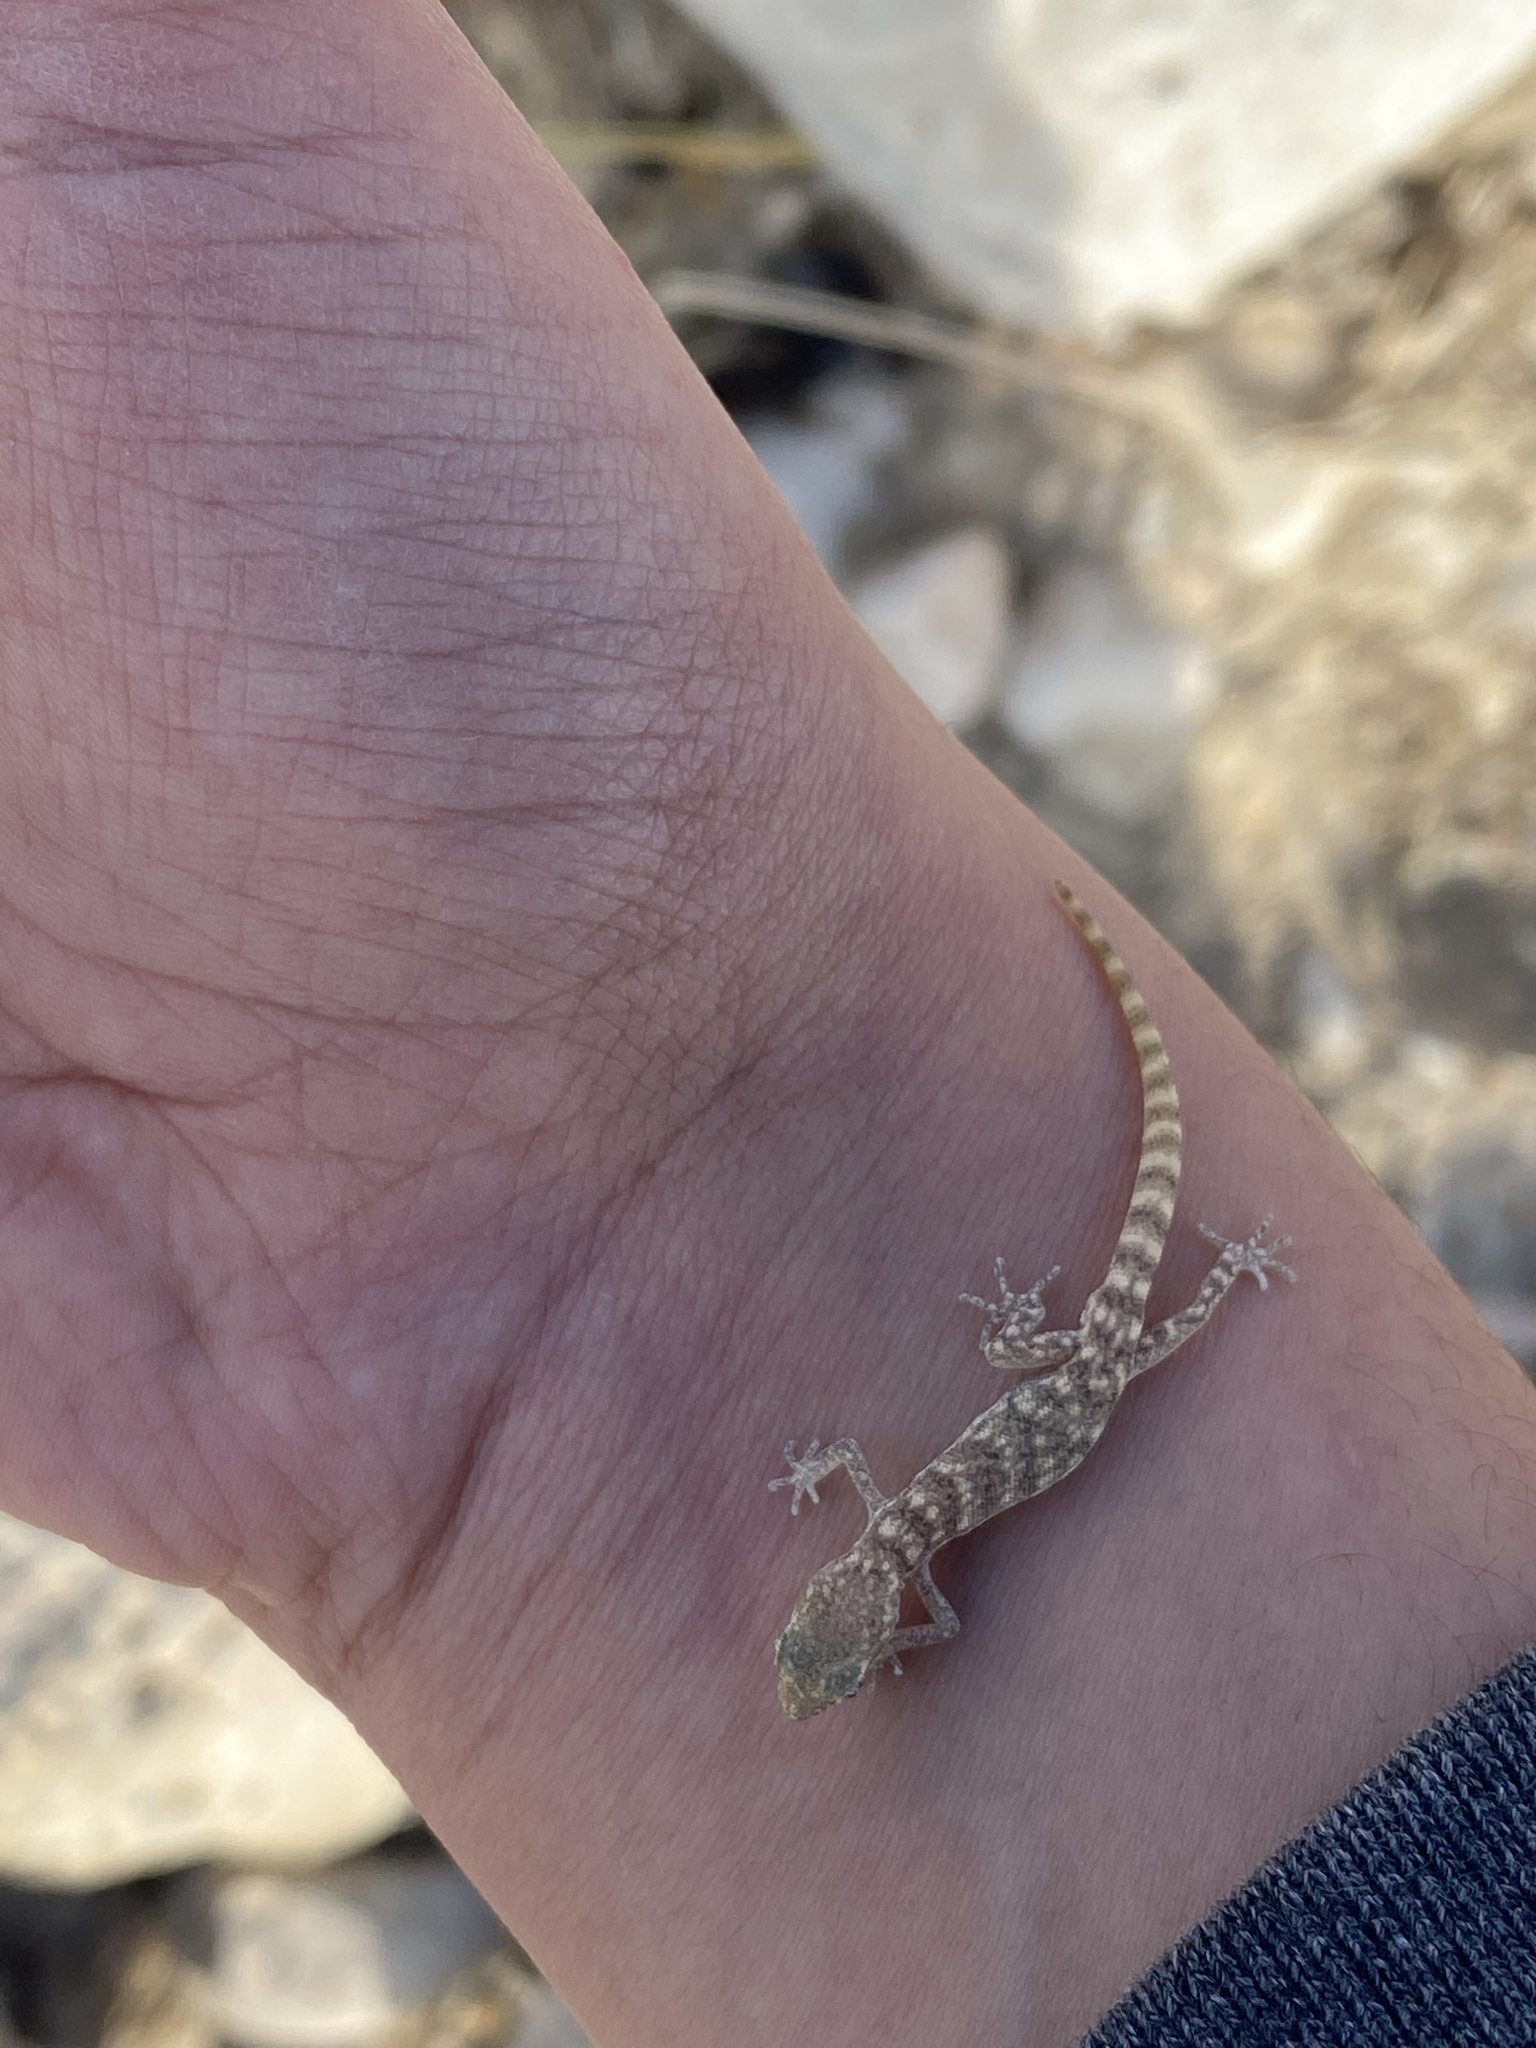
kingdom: Animalia
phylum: Chordata
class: Squamata
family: Gekkonidae
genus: Tropiocolotes
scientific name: Tropiocolotes hormozganensis
